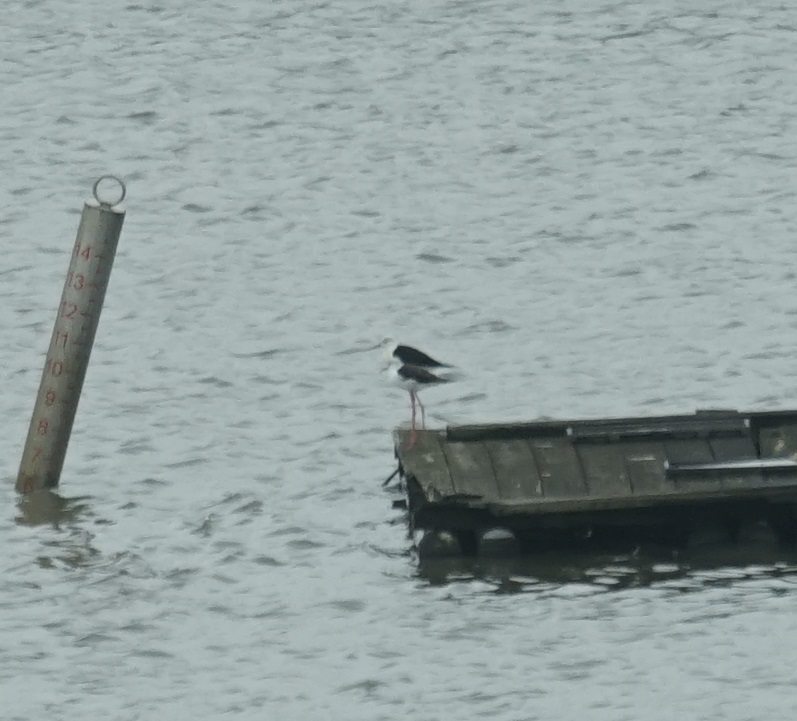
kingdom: Animalia
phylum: Chordata
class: Aves
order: Charadriiformes
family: Recurvirostridae
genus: Himantopus
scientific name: Himantopus himantopus
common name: Black-winged stilt
